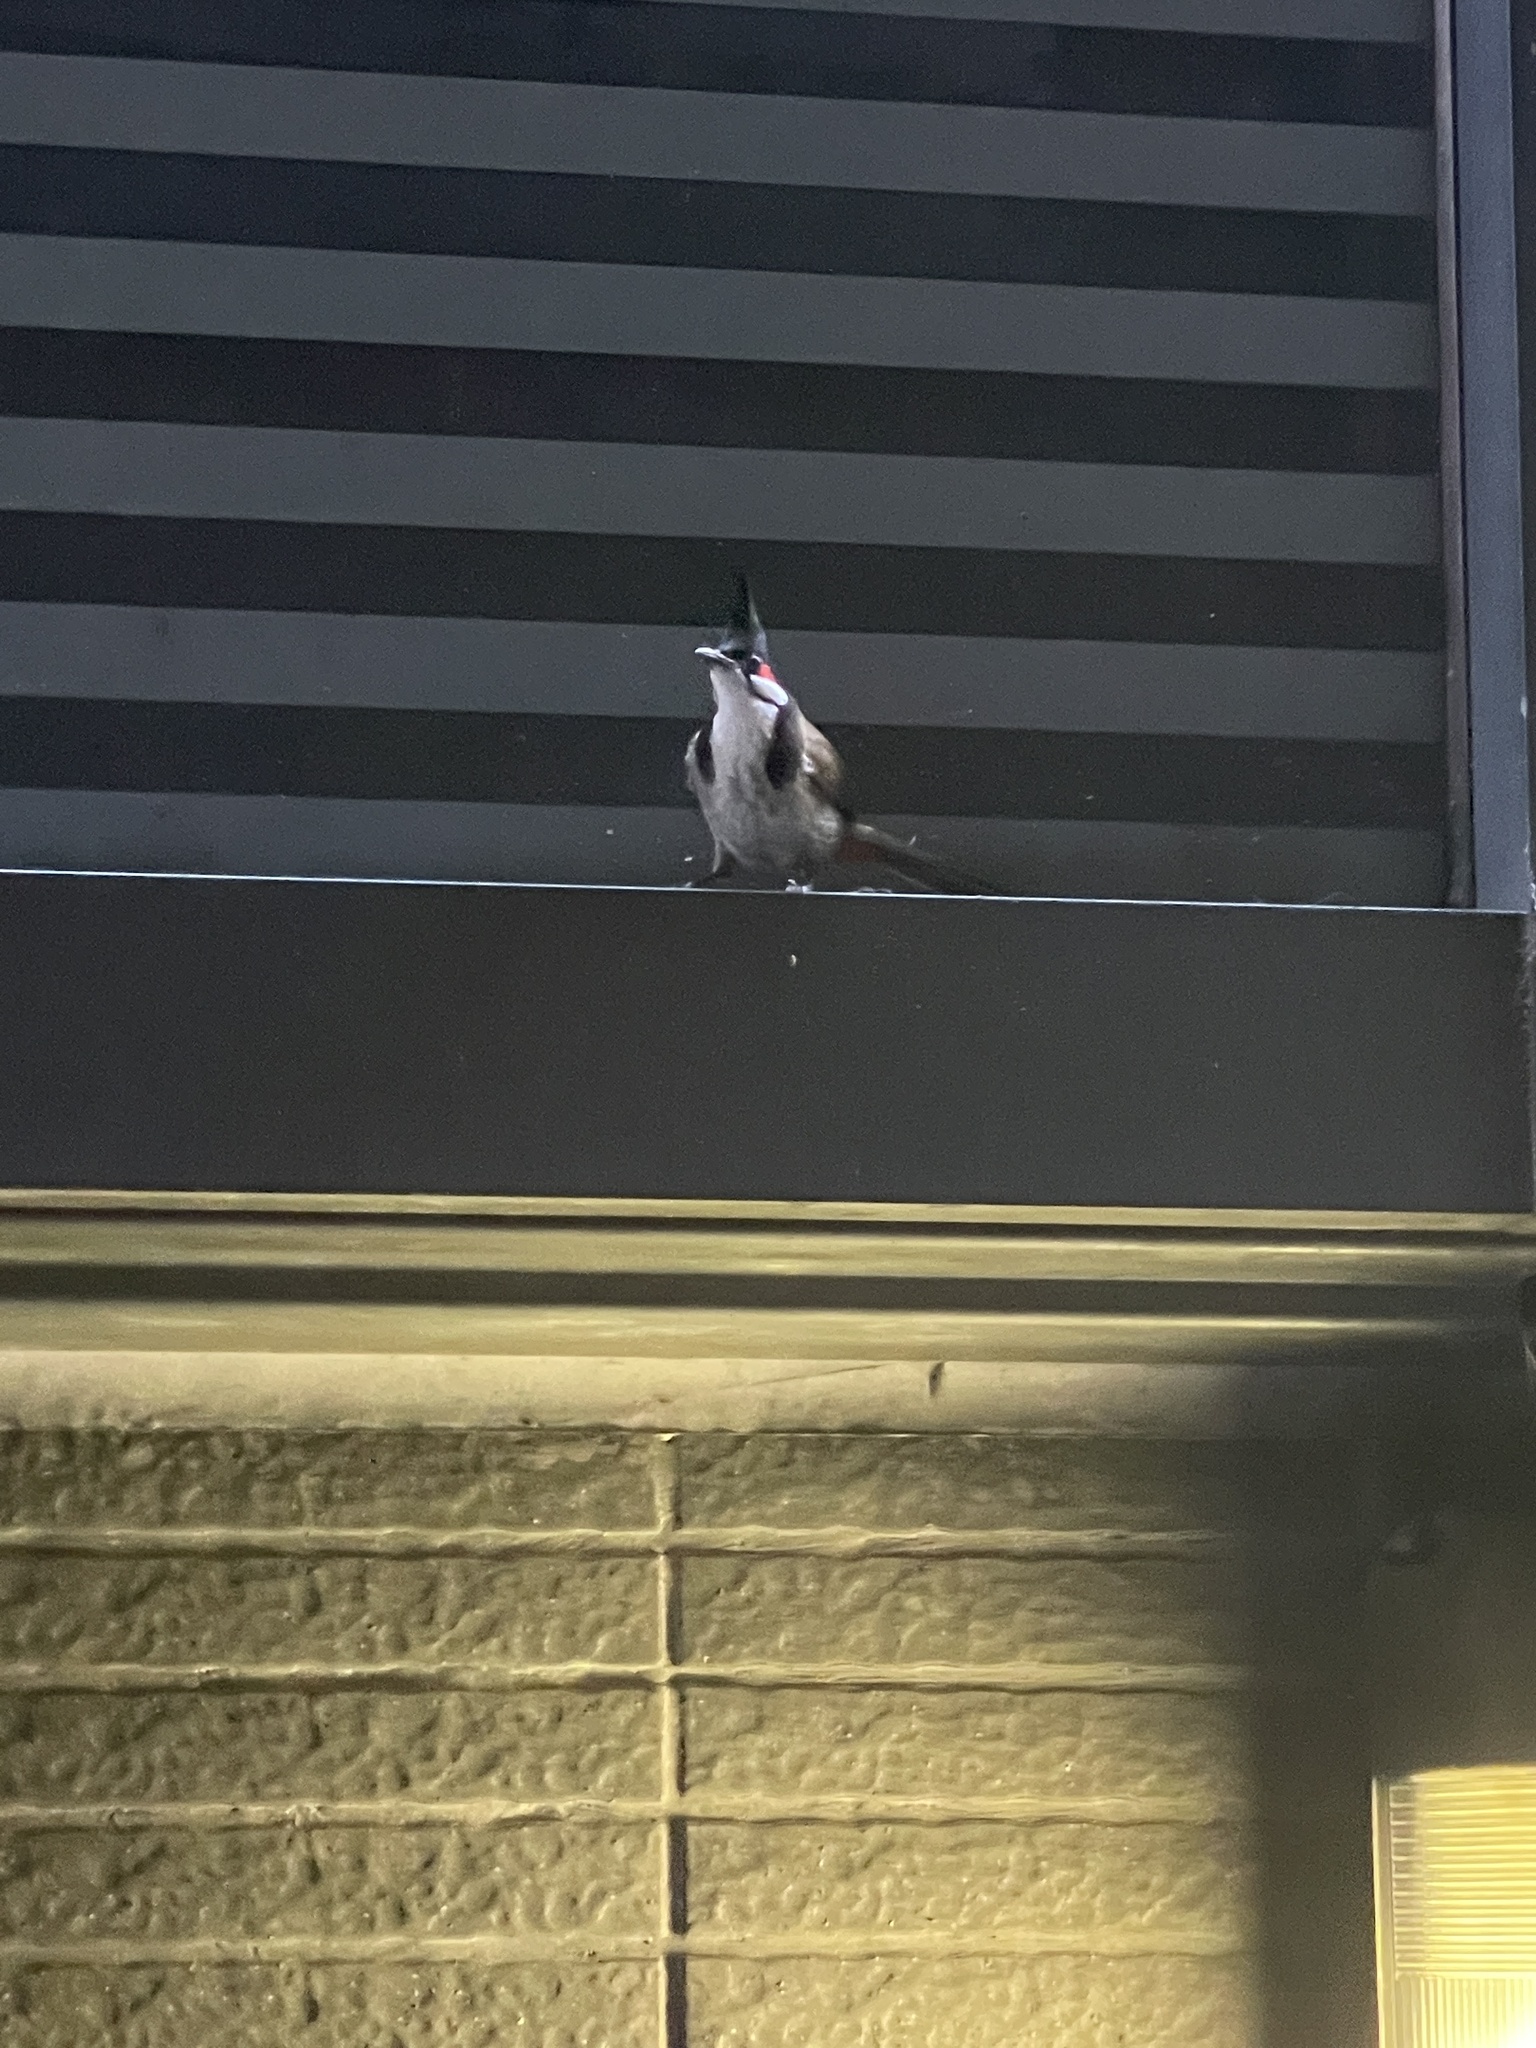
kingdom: Animalia
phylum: Chordata
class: Aves
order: Passeriformes
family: Pycnonotidae
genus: Pycnonotus
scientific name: Pycnonotus jocosus
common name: Red-whiskered bulbul
